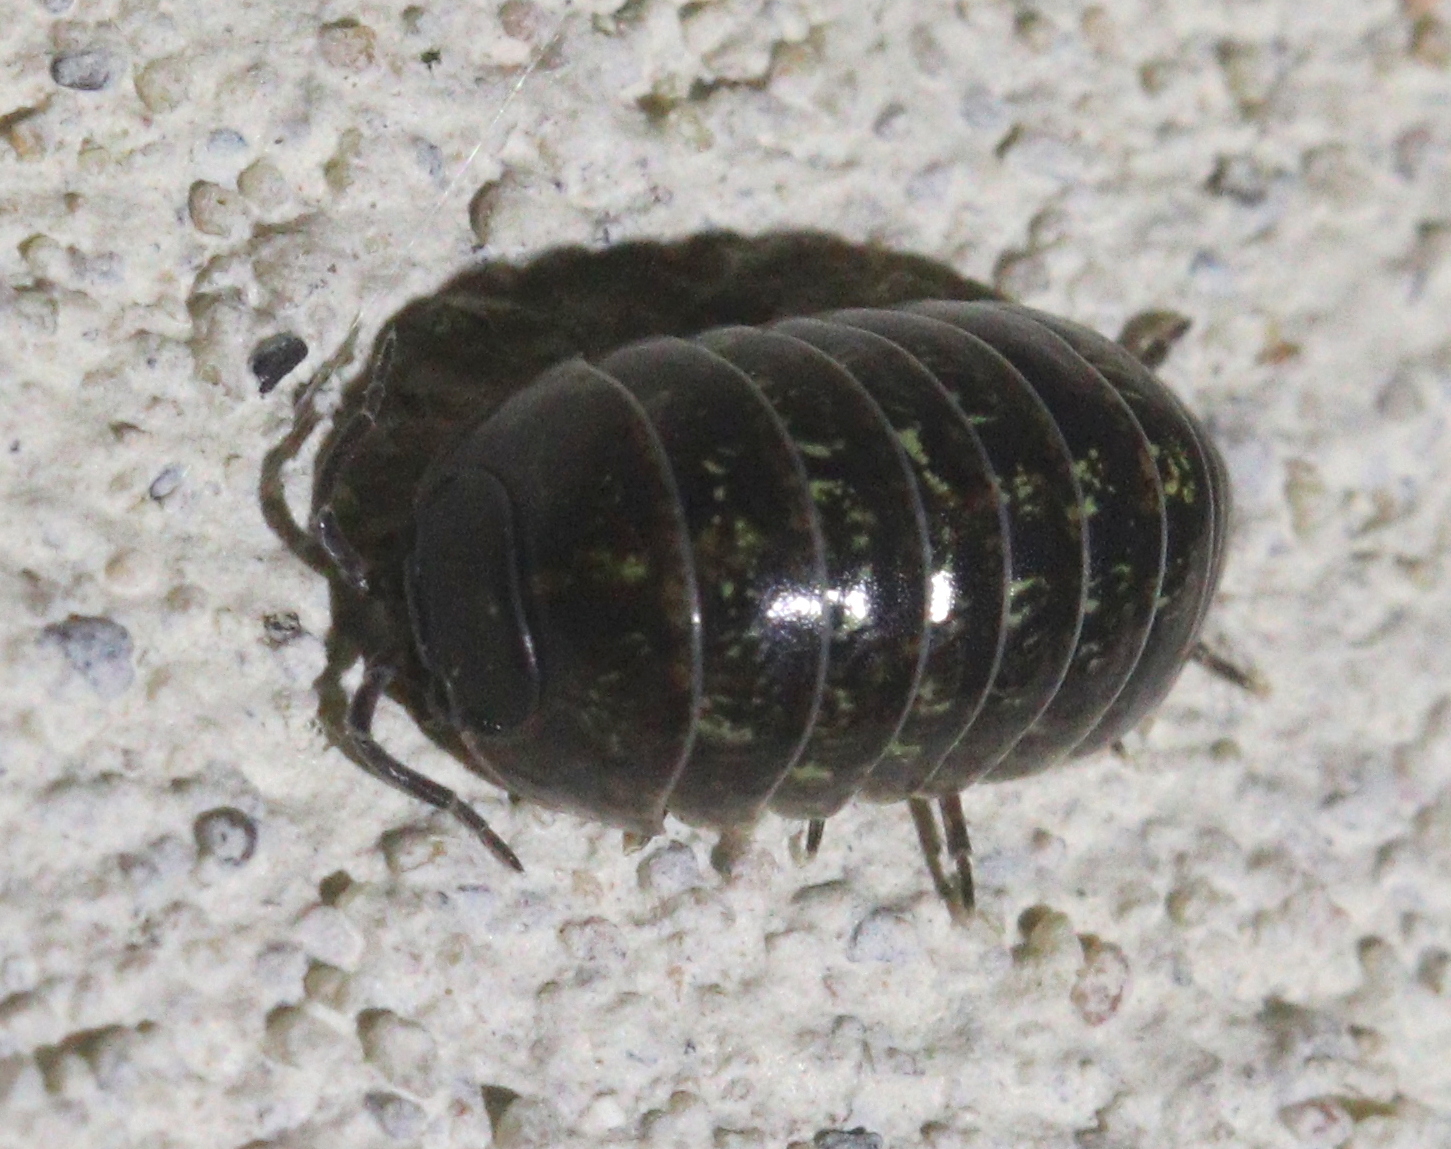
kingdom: Animalia
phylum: Arthropoda
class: Malacostraca
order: Isopoda
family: Armadillidiidae
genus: Armadillidium
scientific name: Armadillidium vulgare
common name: Common pill woodlouse
